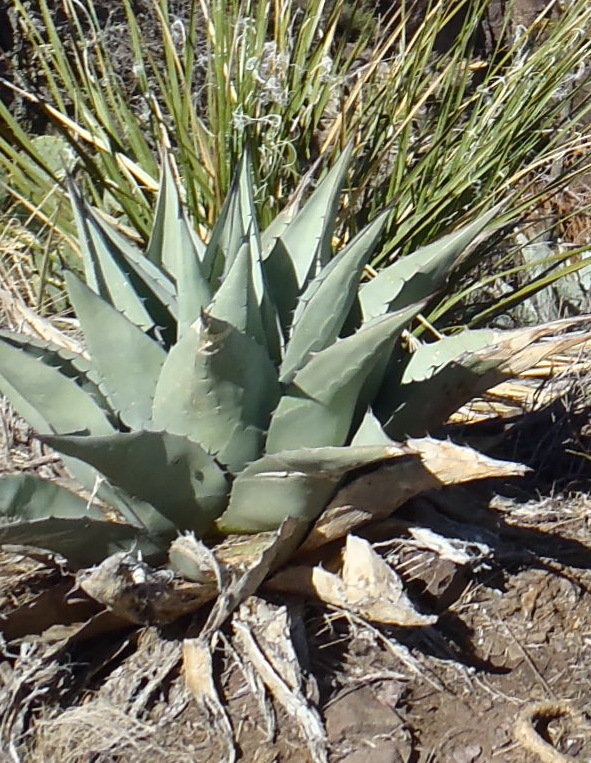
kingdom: Plantae
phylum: Tracheophyta
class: Liliopsida
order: Asparagales
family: Asparagaceae
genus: Agave
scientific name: Agave havardiana
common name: Havard agave
